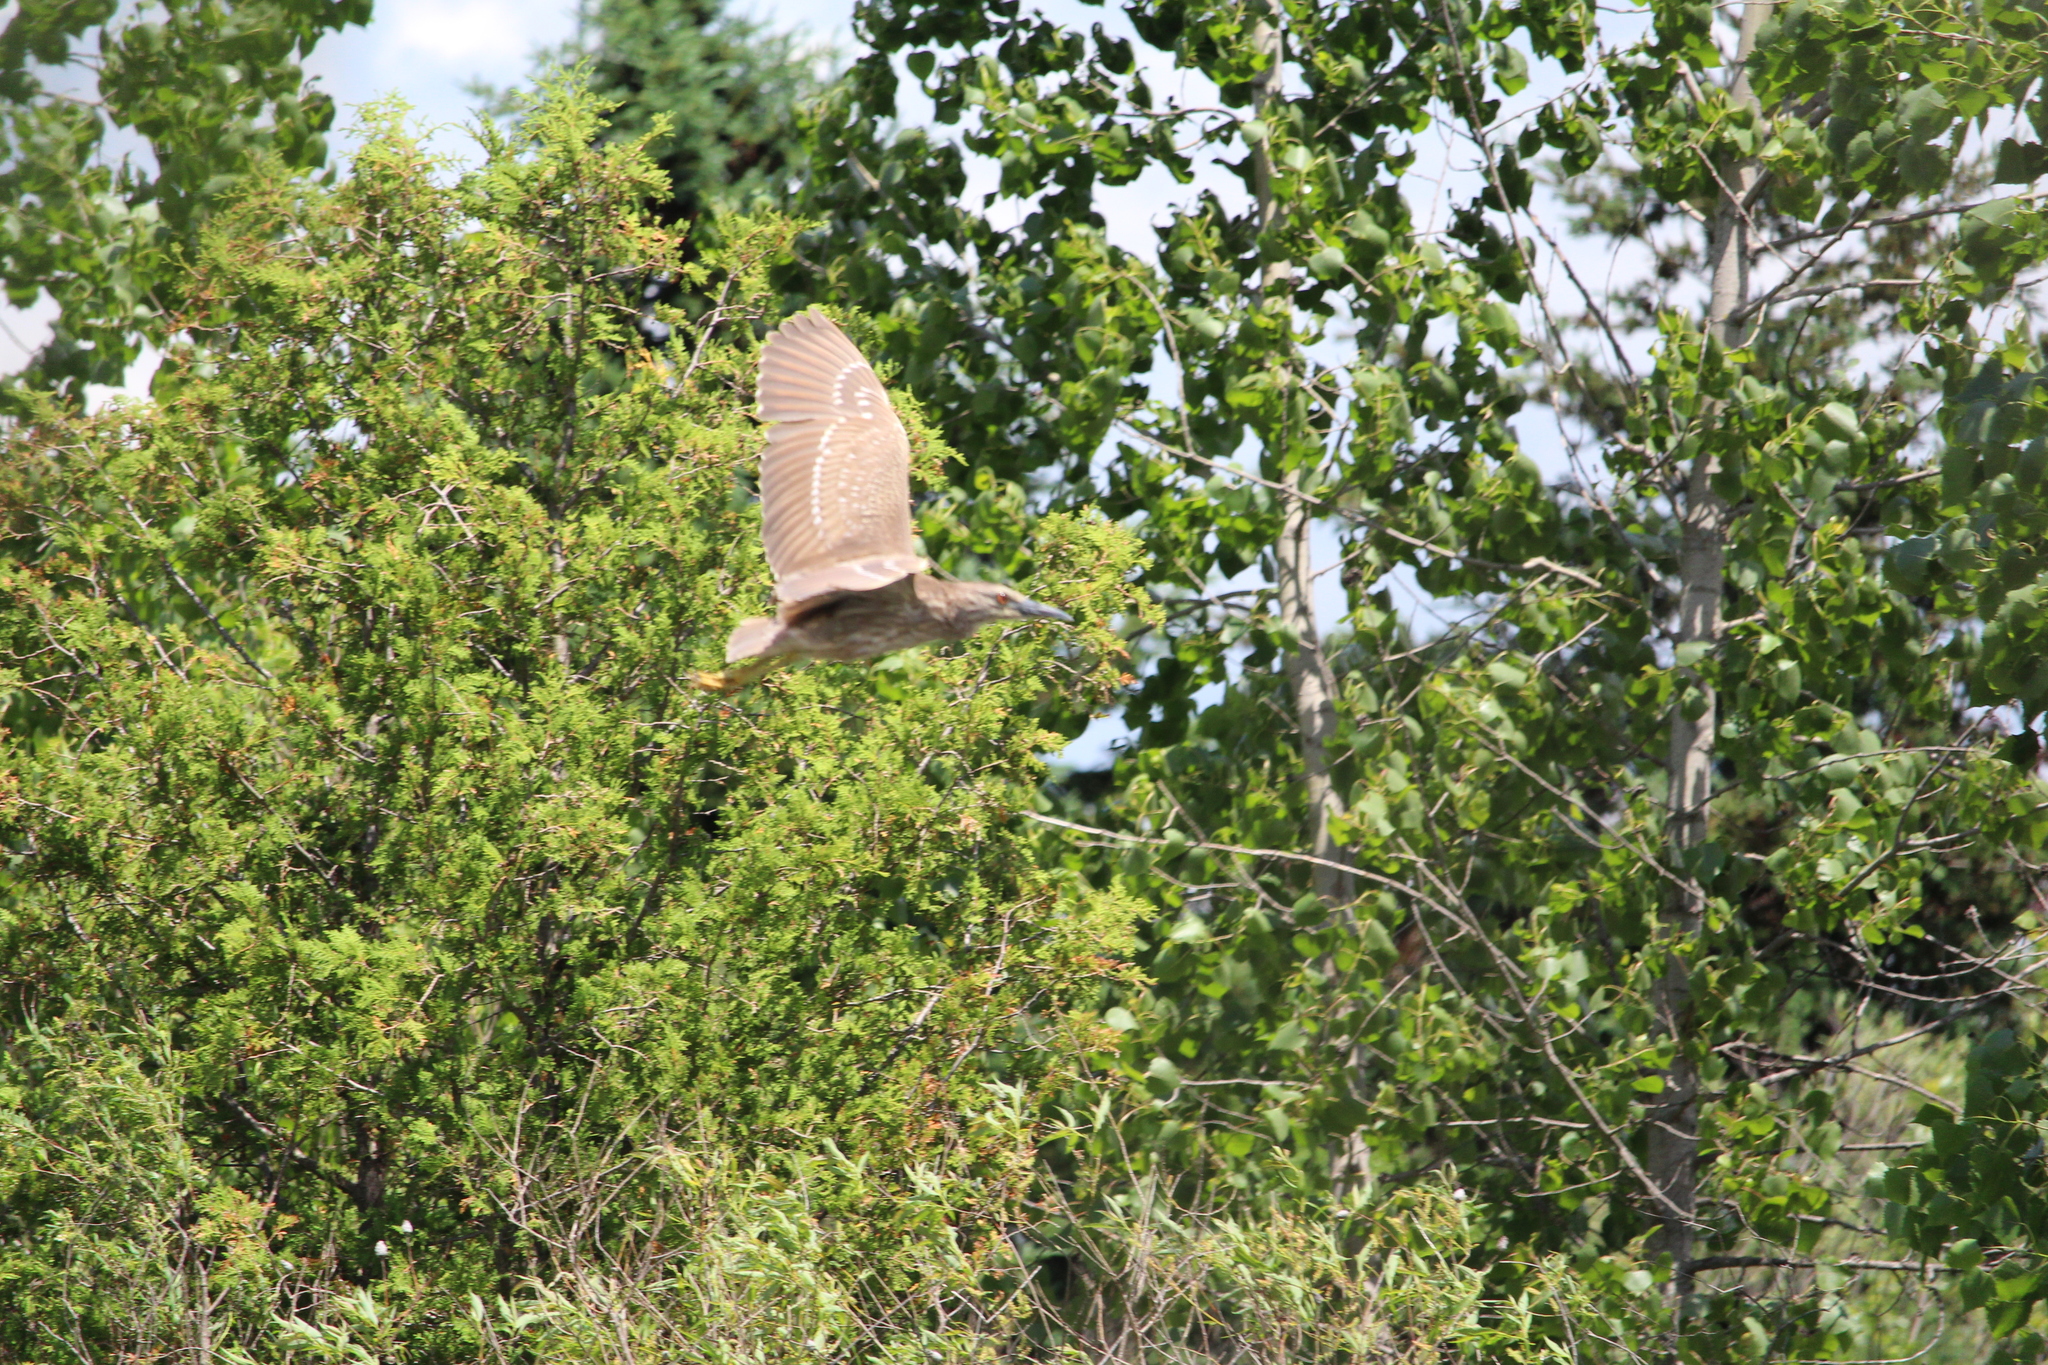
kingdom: Animalia
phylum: Chordata
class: Aves
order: Pelecaniformes
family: Ardeidae
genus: Nycticorax
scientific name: Nycticorax nycticorax
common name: Black-crowned night heron
